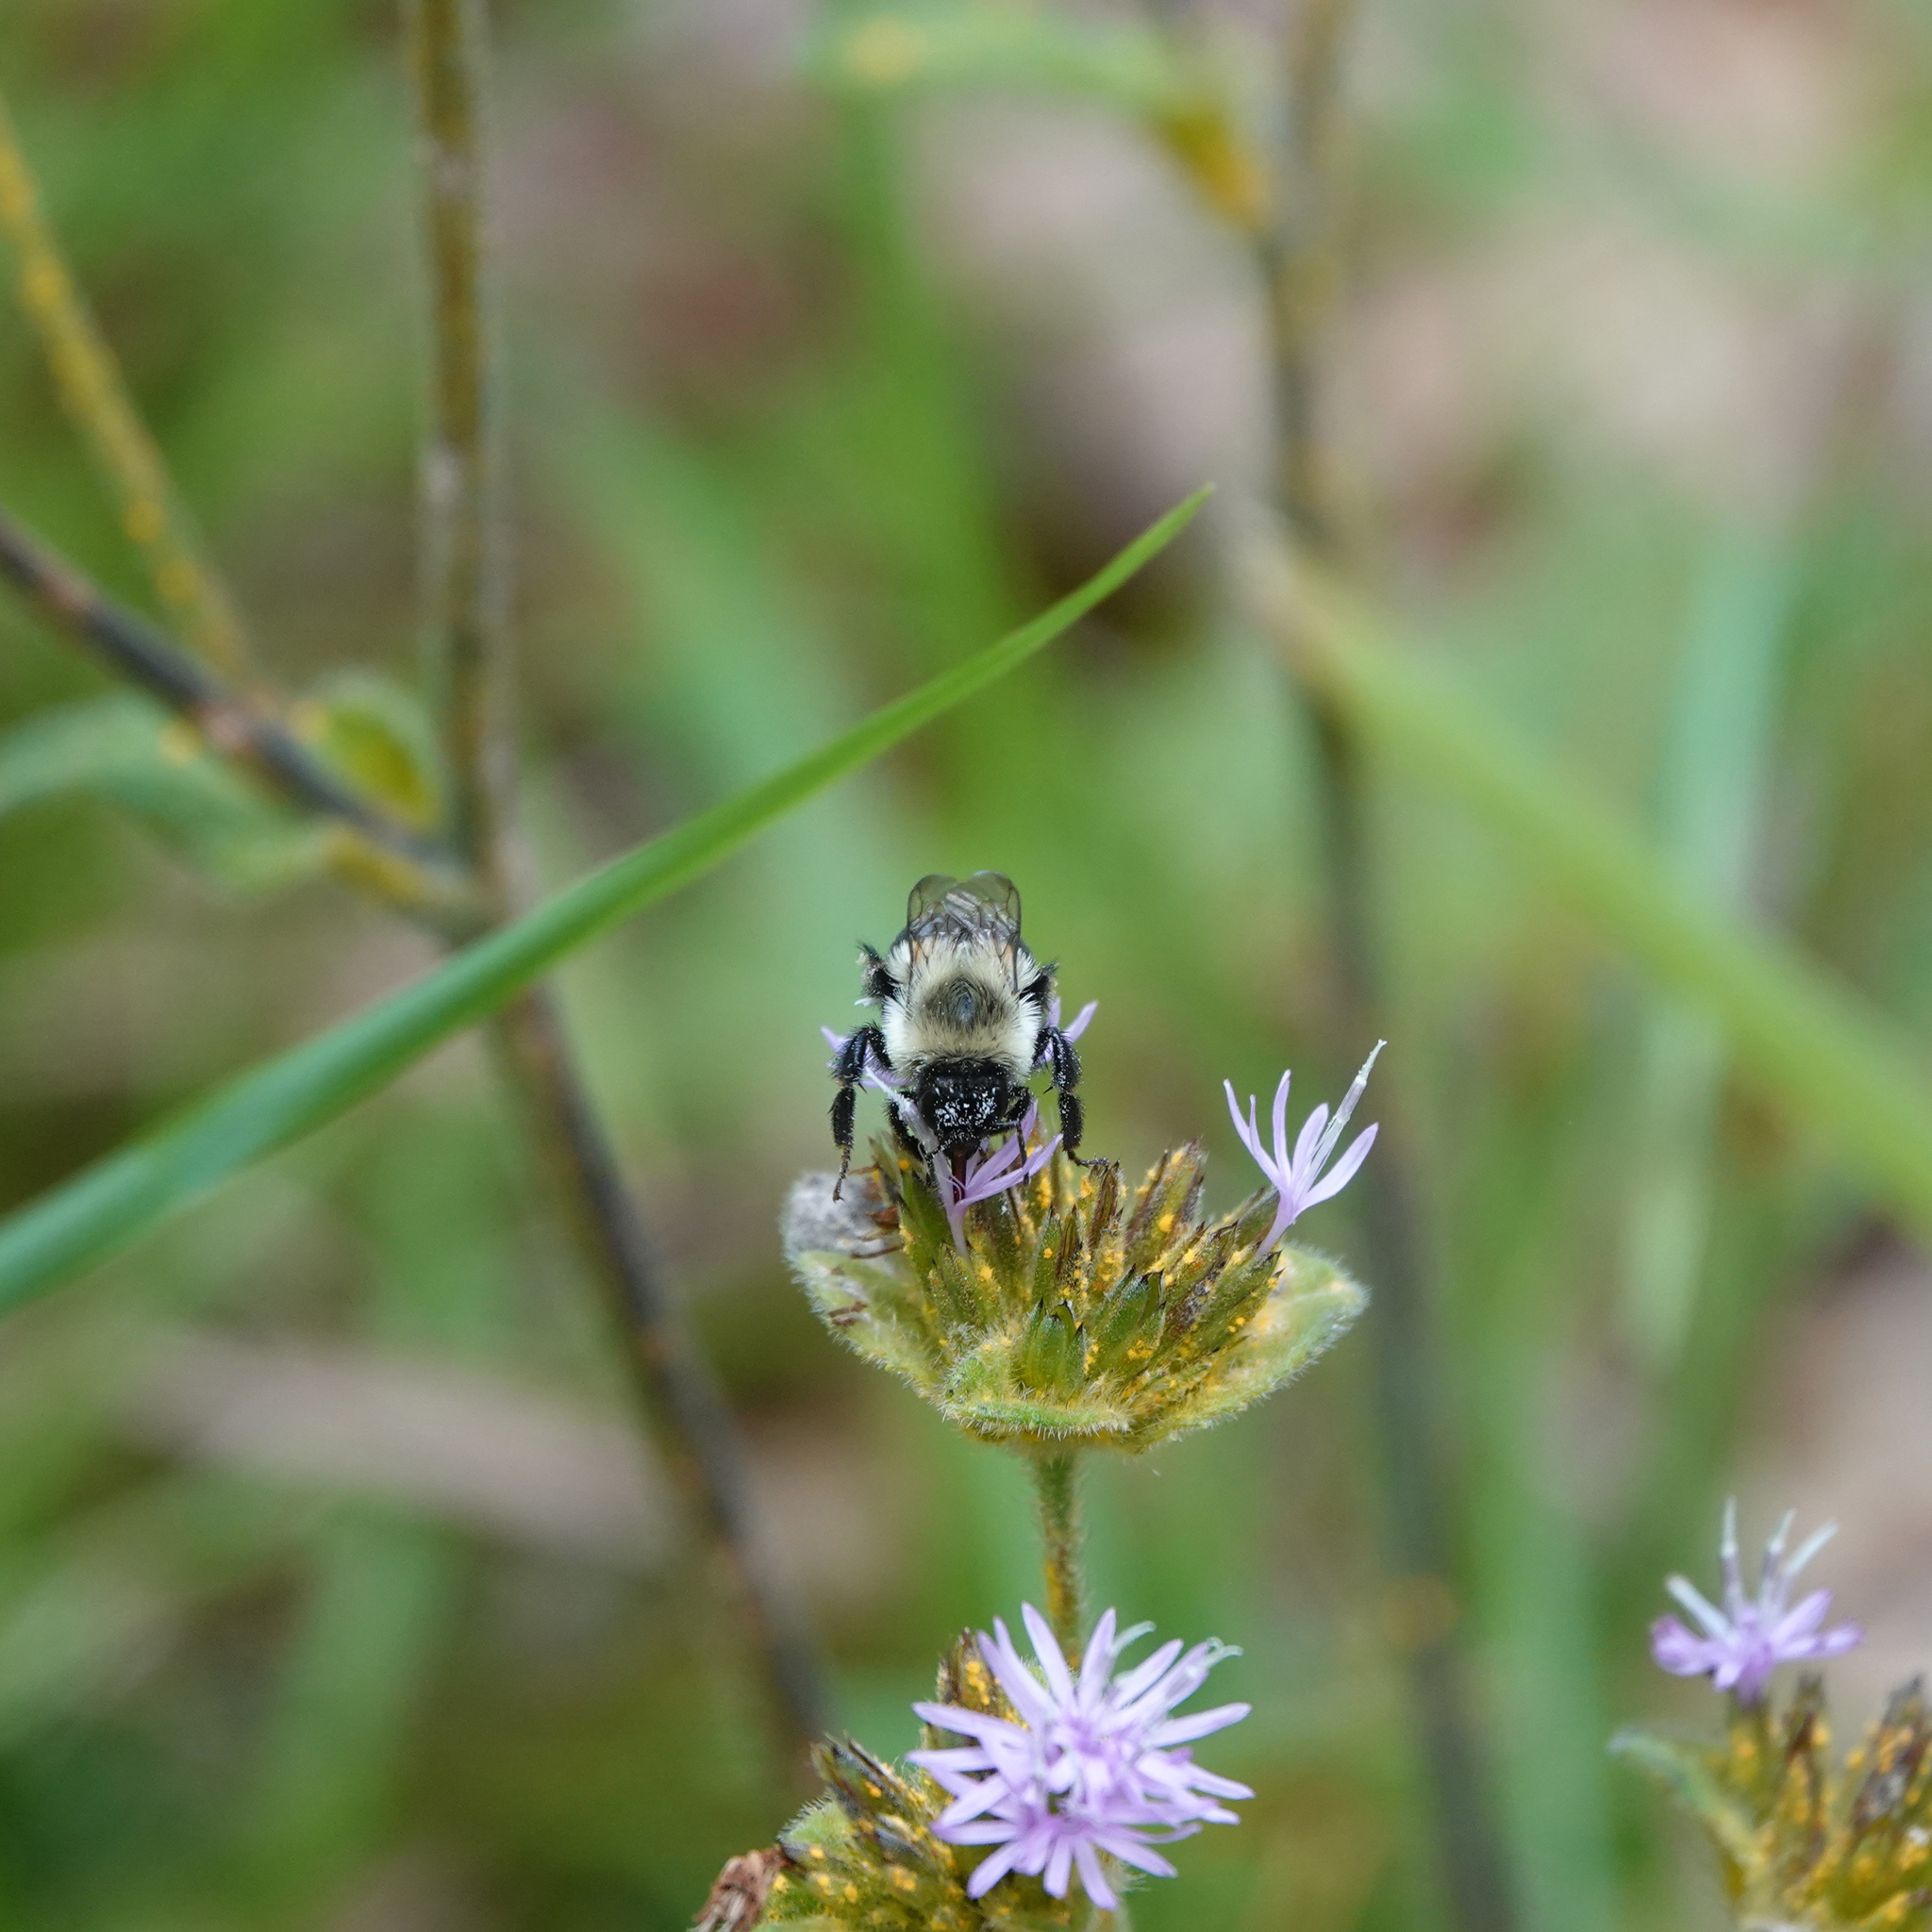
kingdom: Animalia
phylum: Arthropoda
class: Insecta
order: Hymenoptera
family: Apidae
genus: Bombus
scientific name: Bombus impatiens
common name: Common eastern bumble bee
